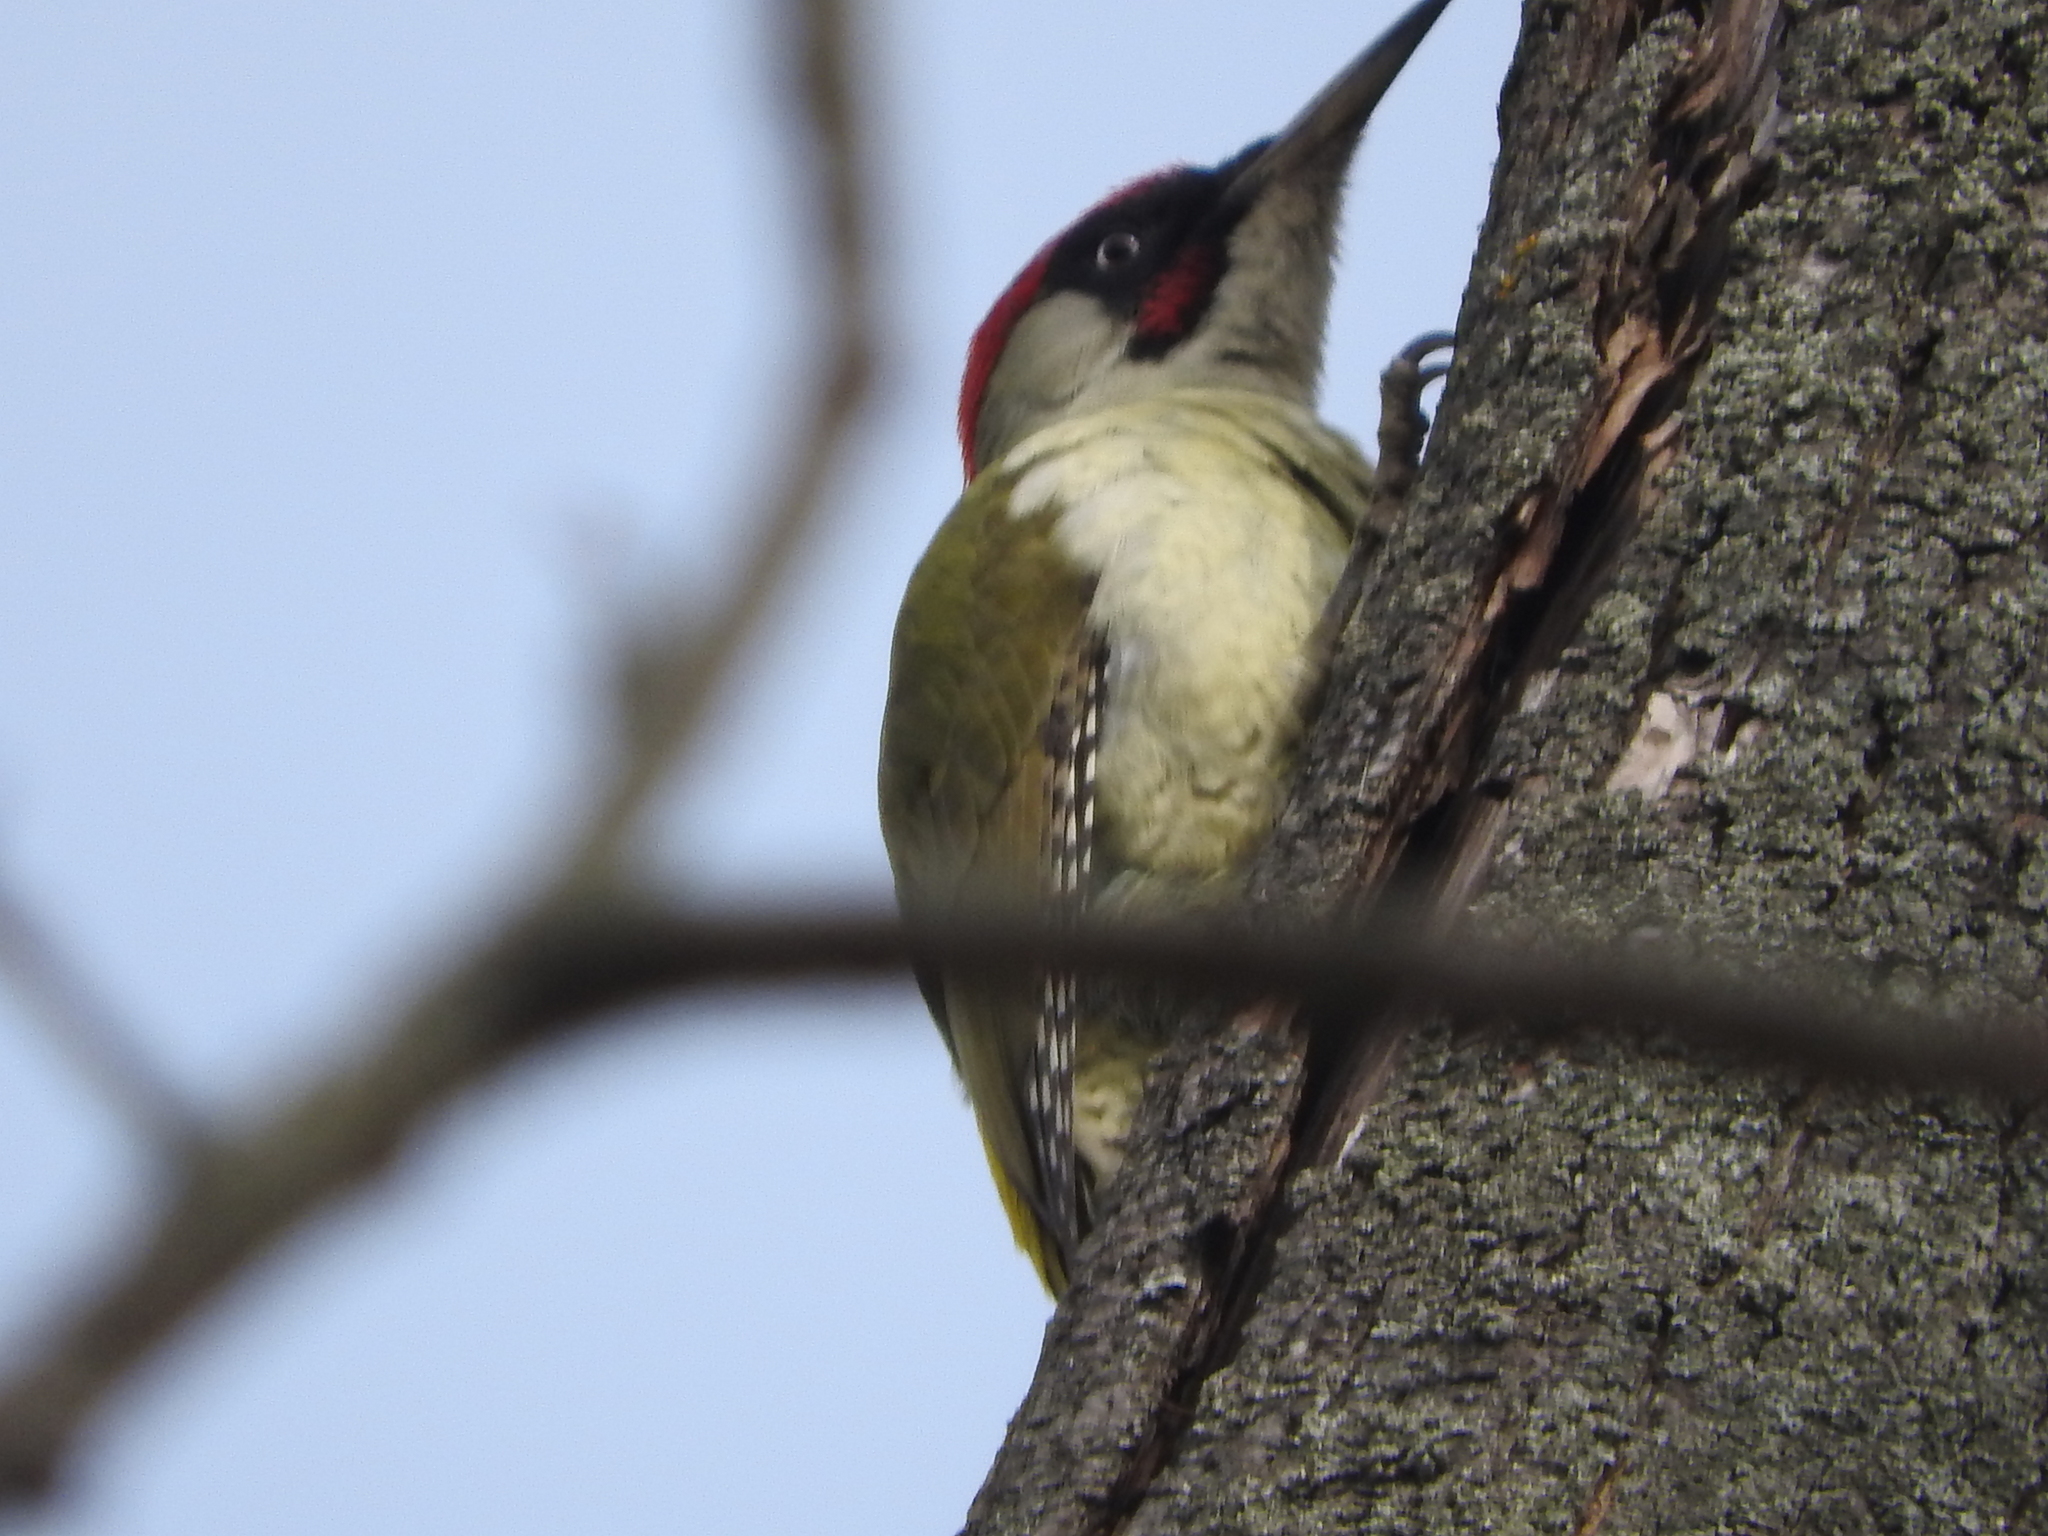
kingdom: Animalia
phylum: Chordata
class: Aves
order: Piciformes
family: Picidae
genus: Picus
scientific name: Picus viridis
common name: European green woodpecker
